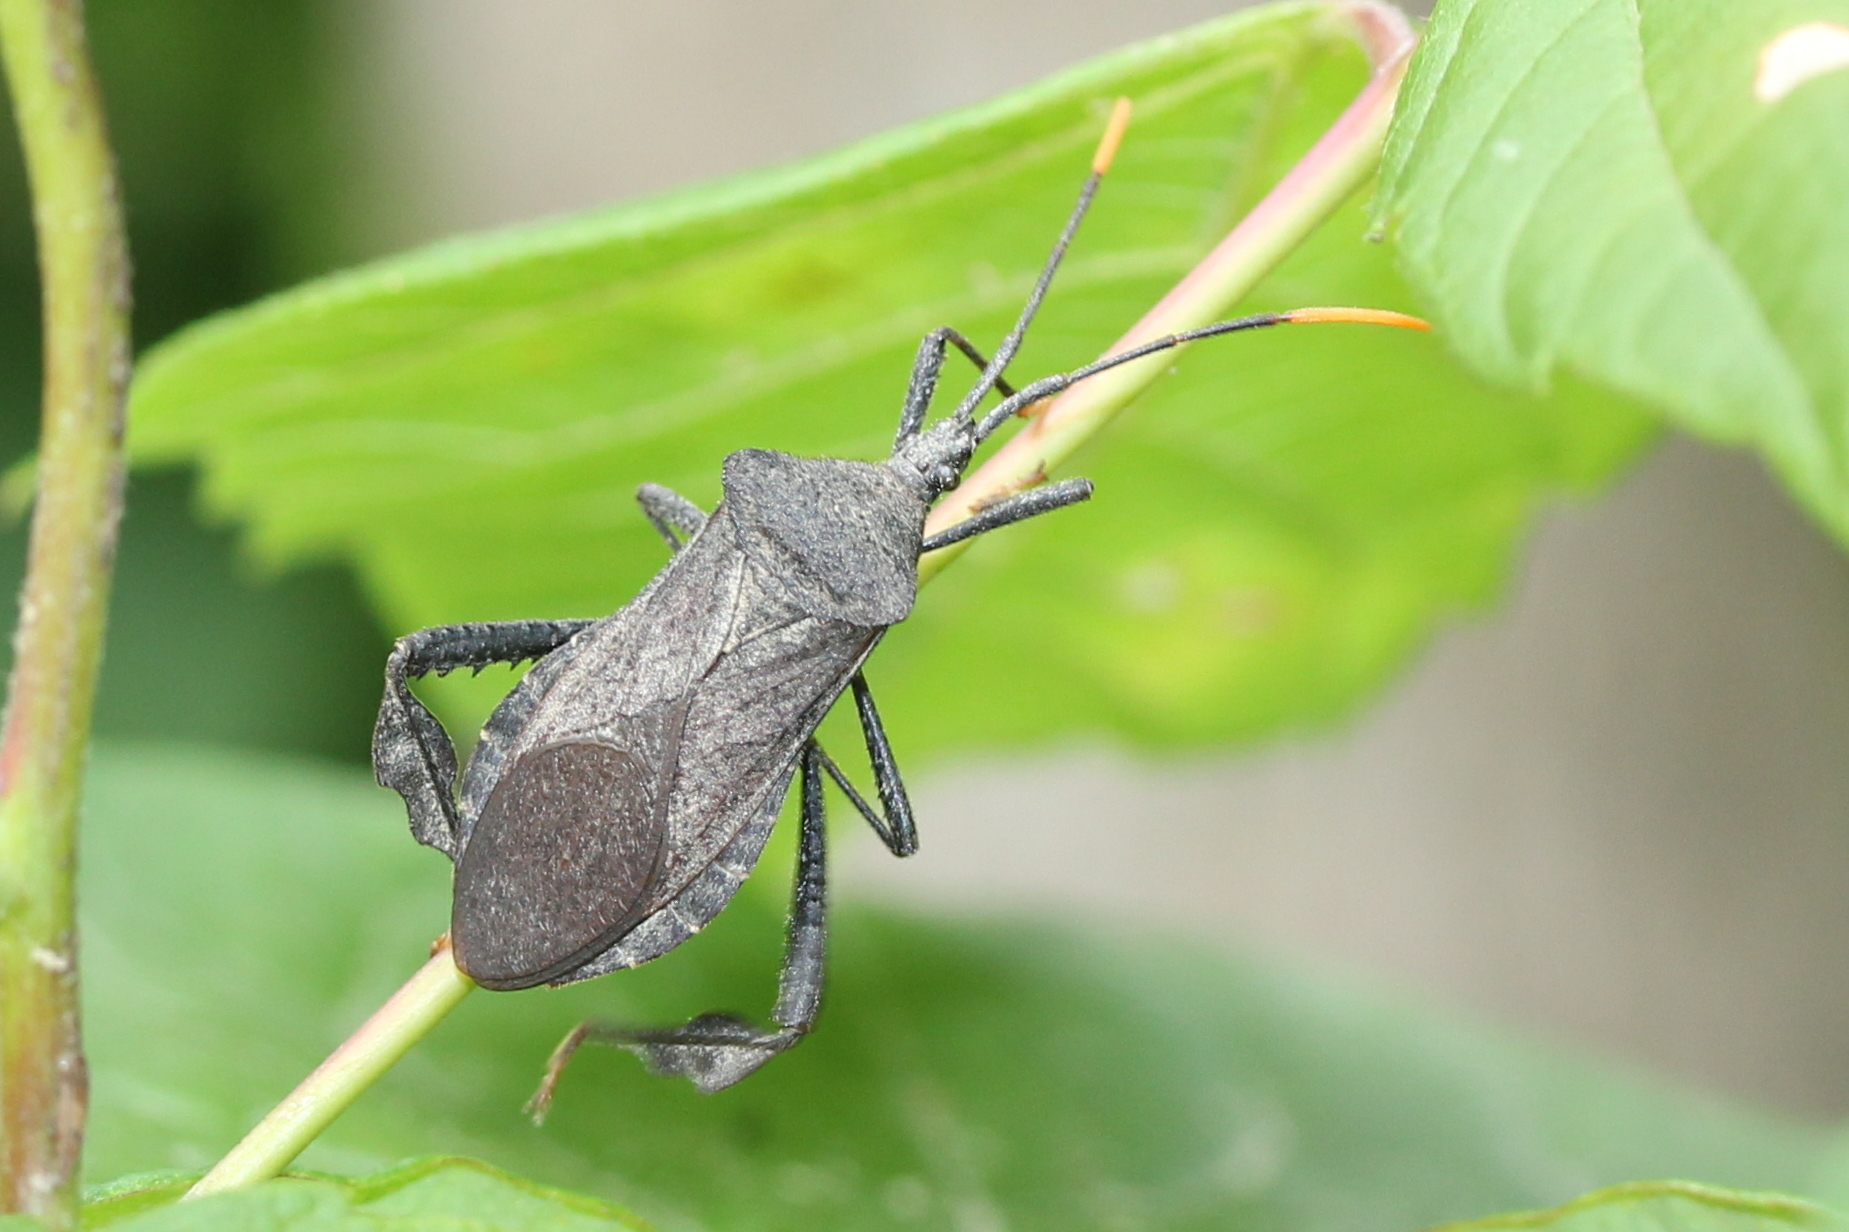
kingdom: Animalia
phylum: Arthropoda
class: Insecta
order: Hemiptera
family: Coreidae
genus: Acanthocephala
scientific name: Acanthocephala terminalis
